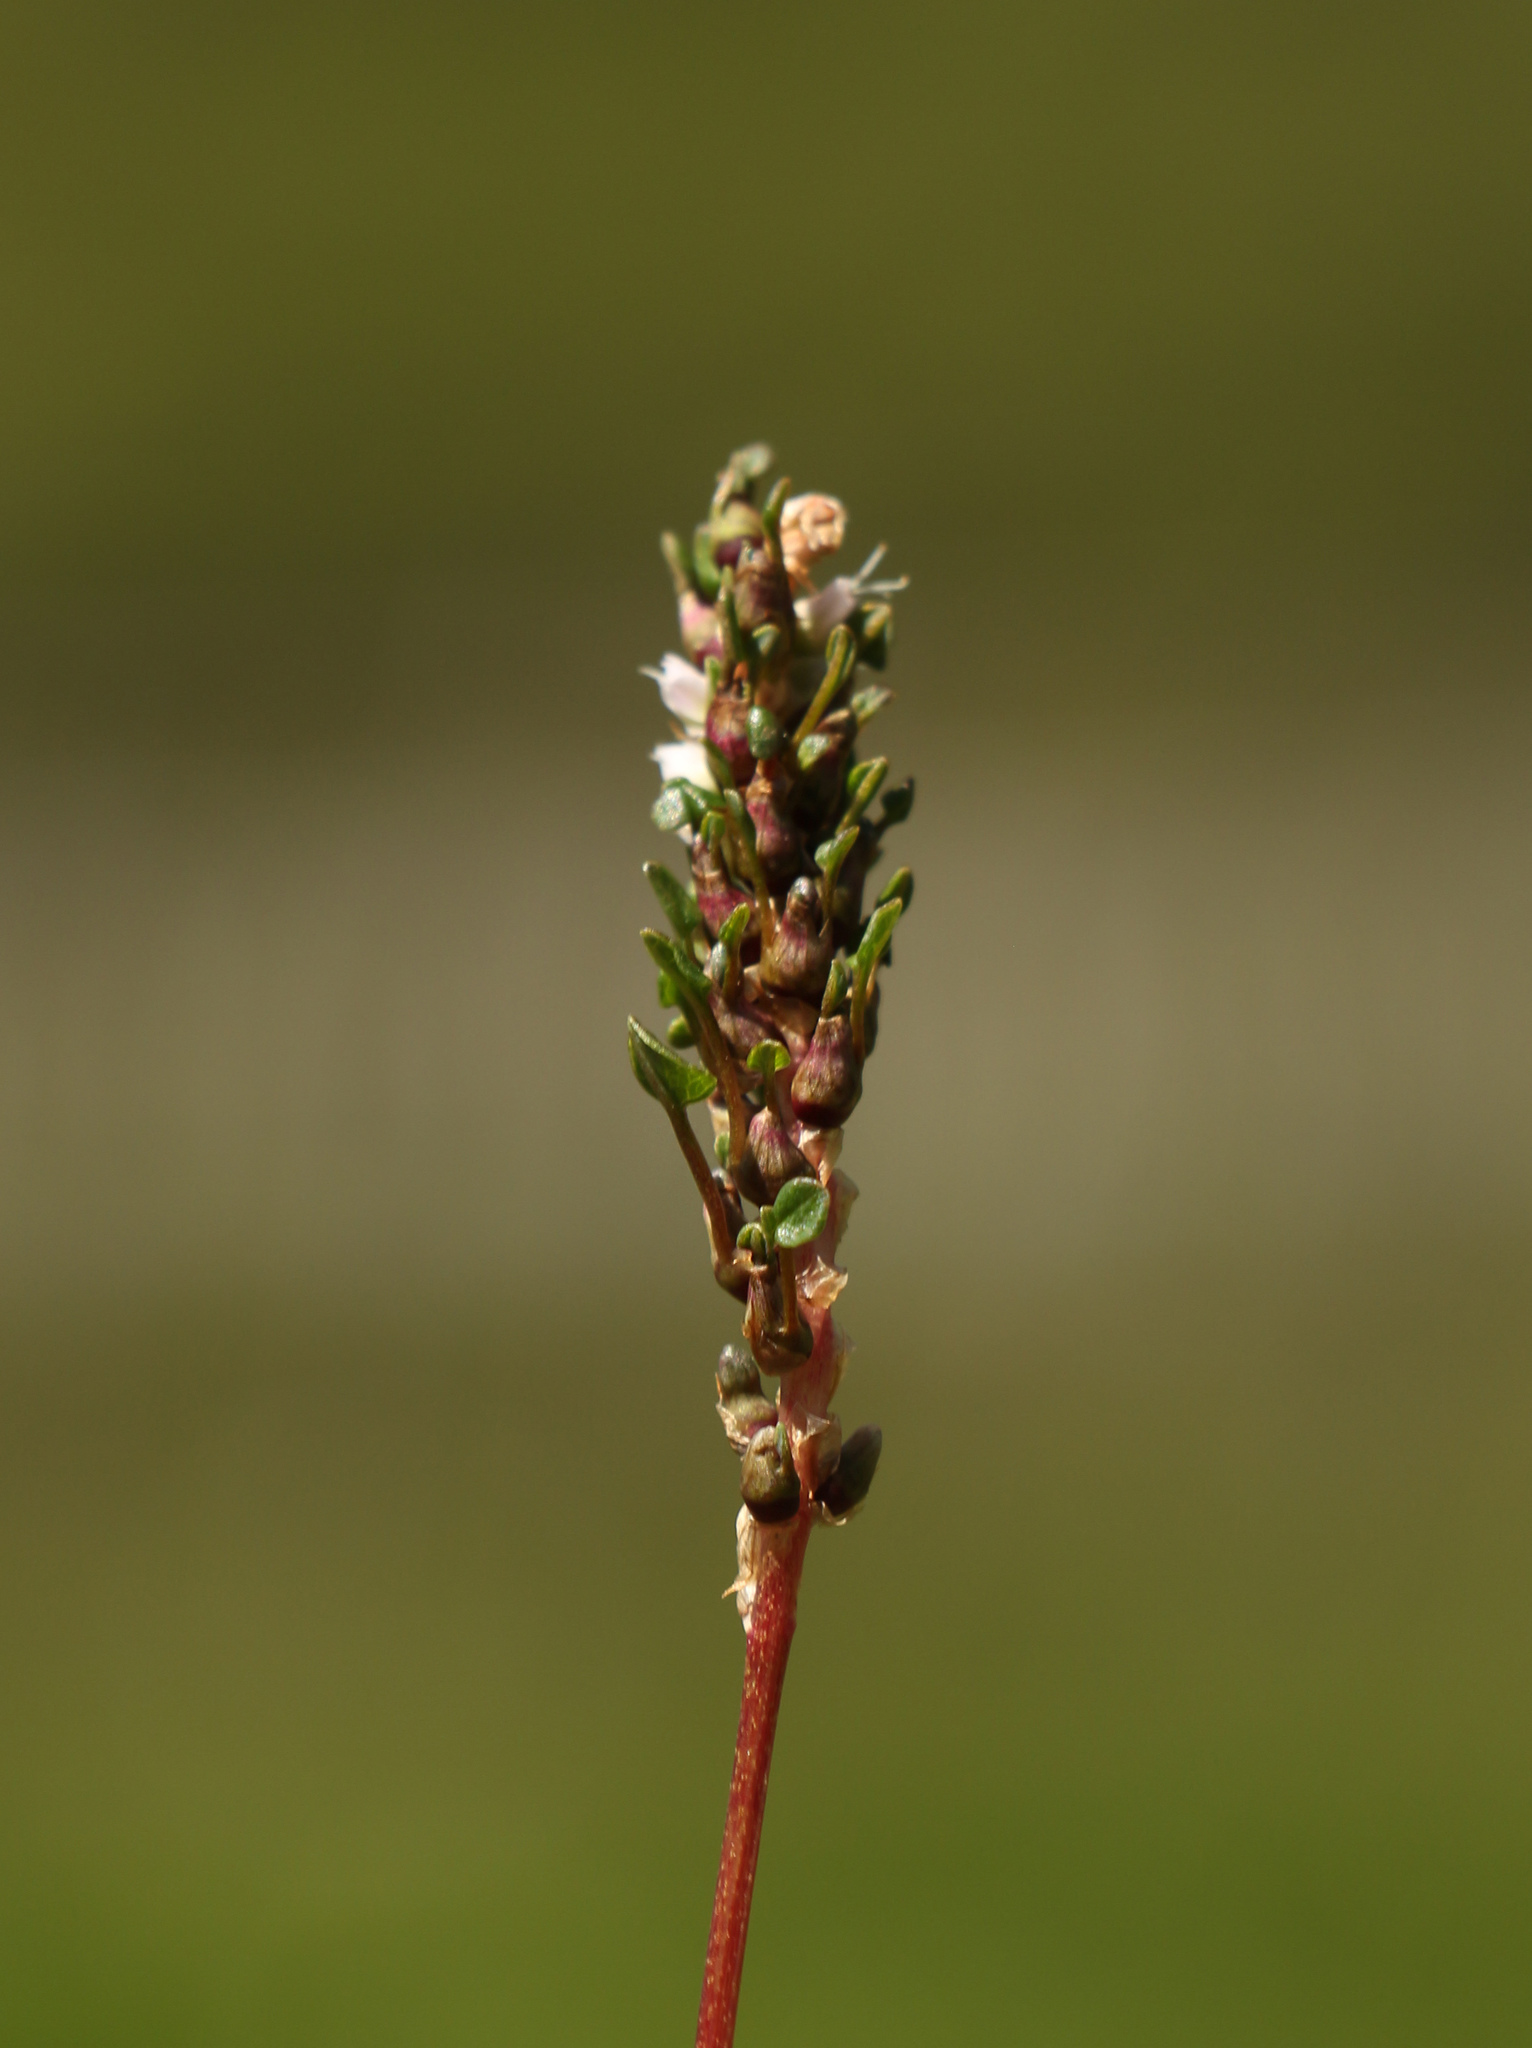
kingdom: Plantae
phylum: Tracheophyta
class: Magnoliopsida
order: Caryophyllales
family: Polygonaceae
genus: Bistorta
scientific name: Bistorta vivipara
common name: Alpine bistort
